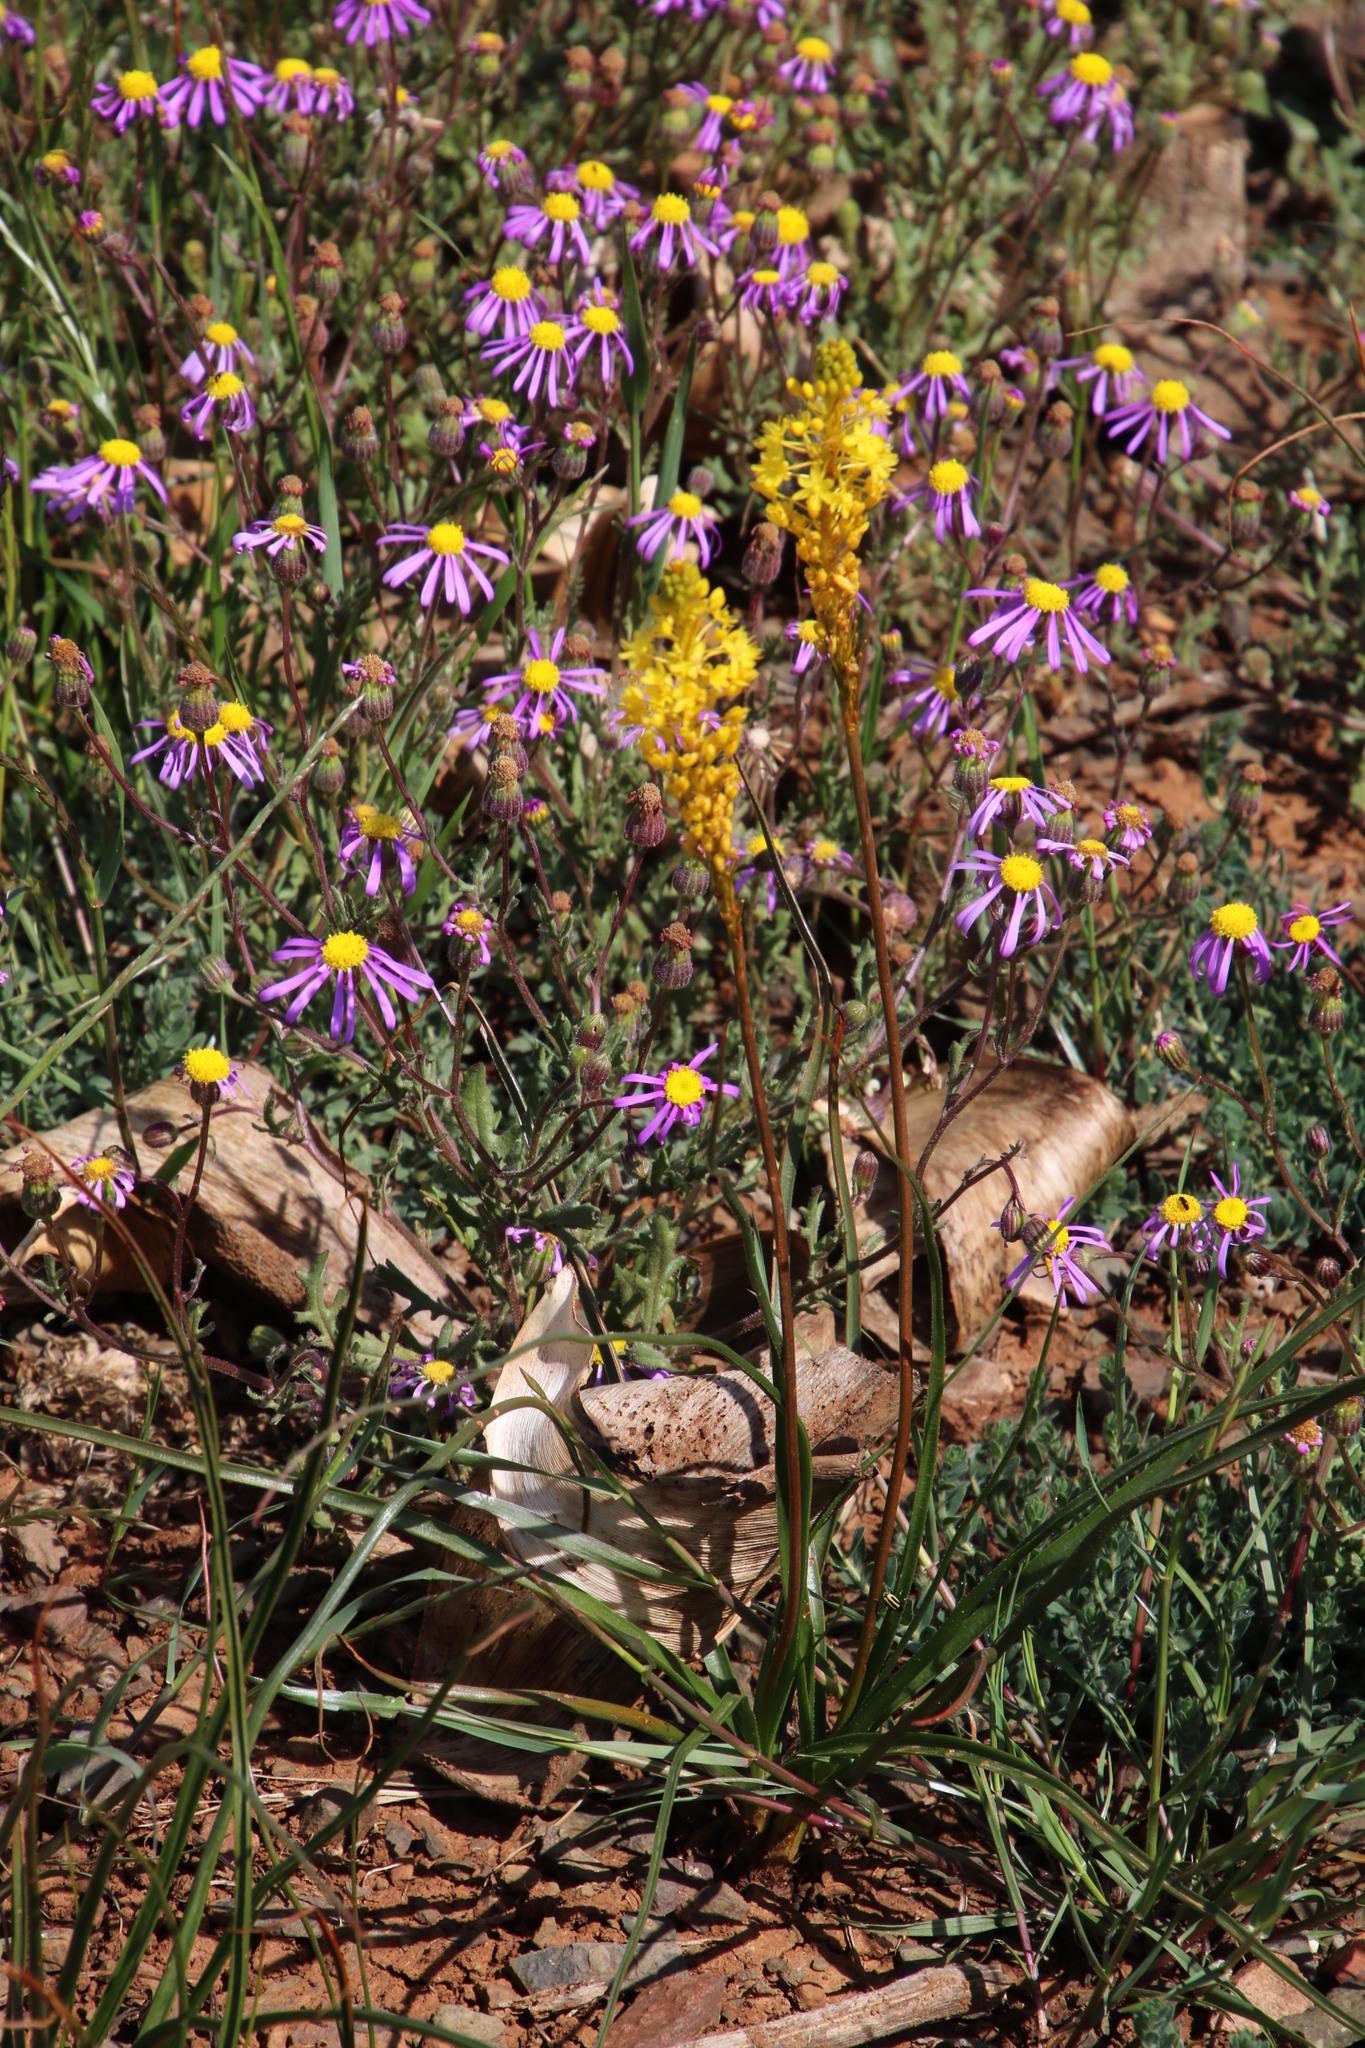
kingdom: Plantae
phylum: Tracheophyta
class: Liliopsida
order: Asparagales
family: Asphodelaceae
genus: Bulbinella
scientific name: Bulbinella nutans
